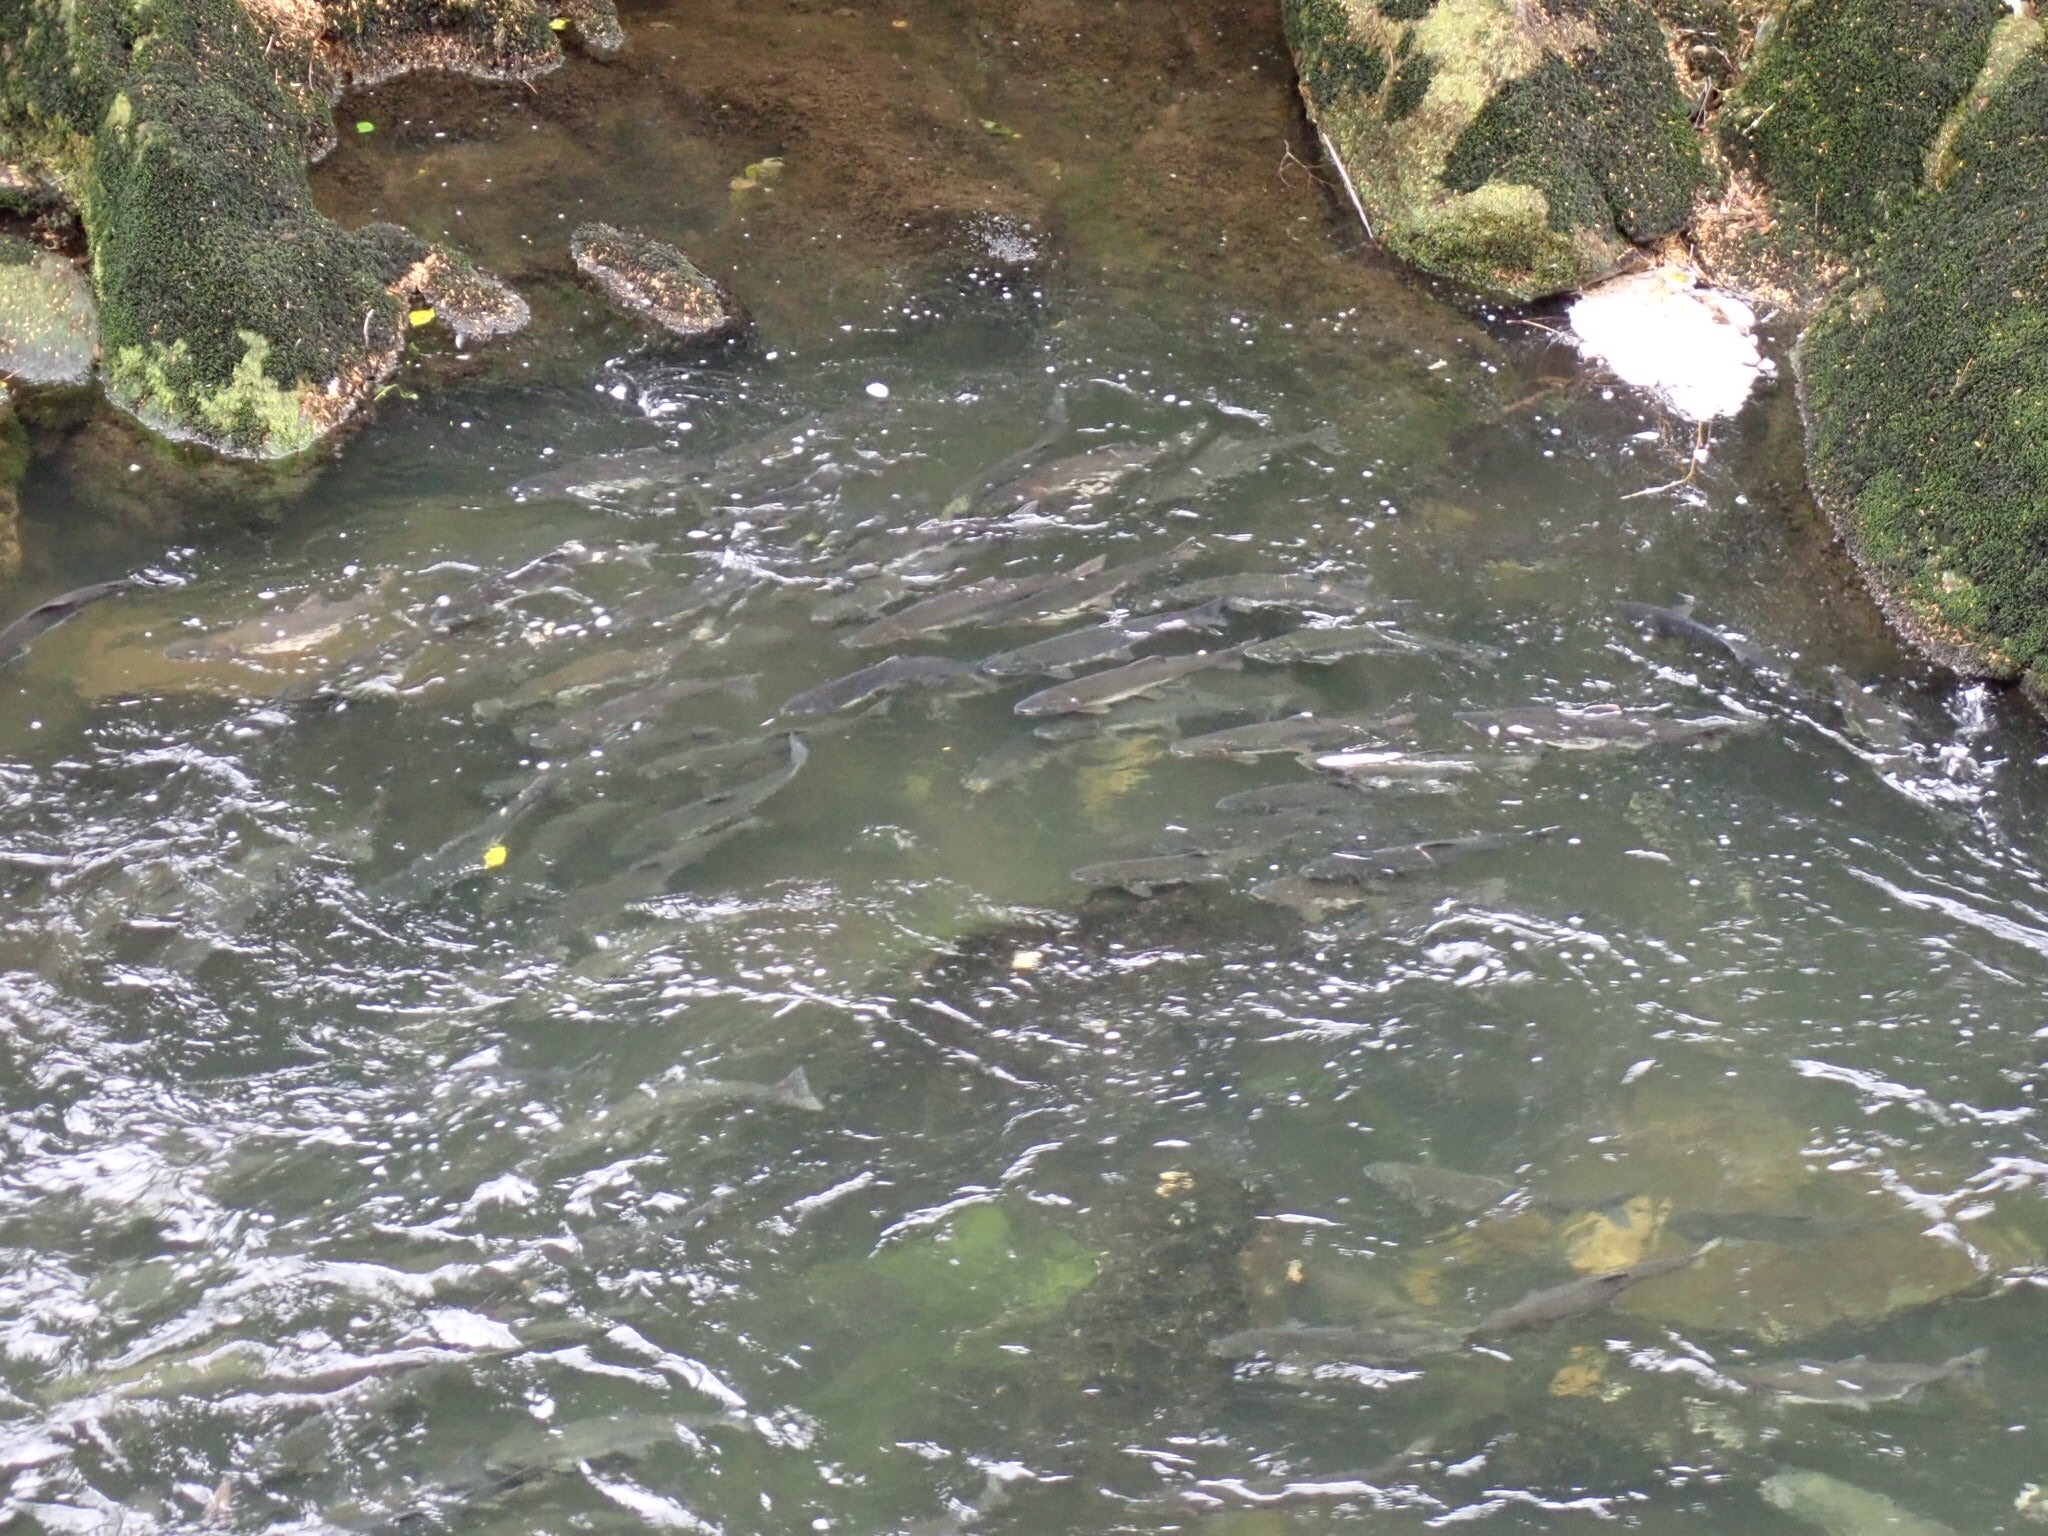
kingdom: Animalia
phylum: Chordata
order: Salmoniformes
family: Salmonidae
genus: Oncorhynchus
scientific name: Oncorhynchus gorbuscha
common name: Humpback salmon
